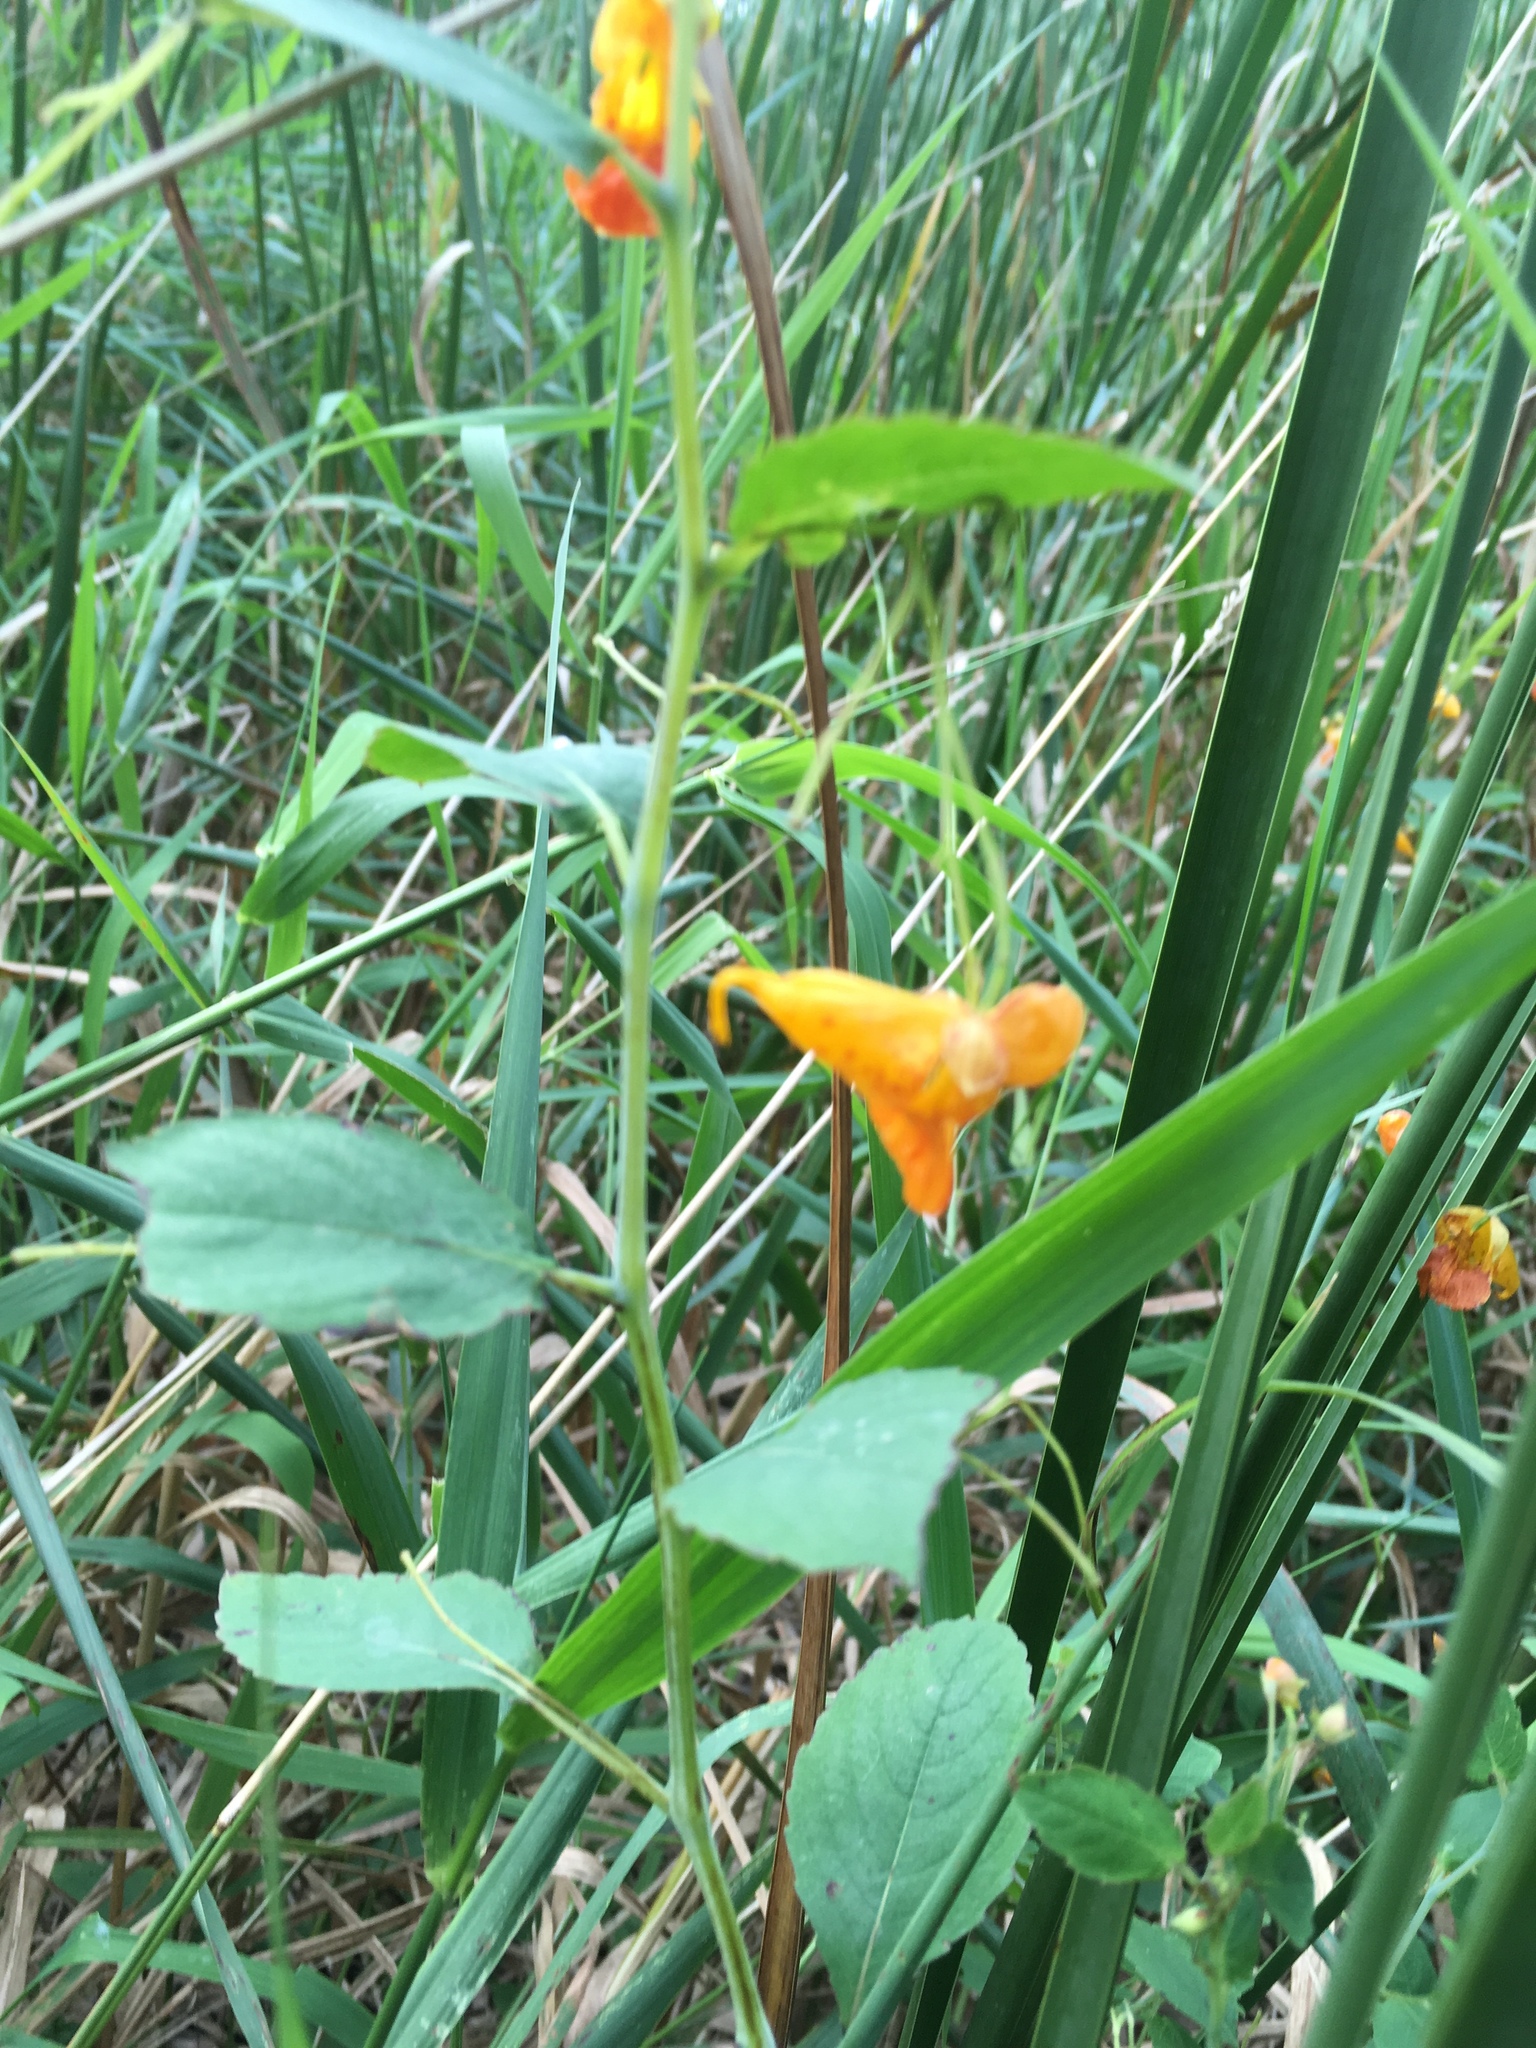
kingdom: Plantae
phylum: Tracheophyta
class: Magnoliopsida
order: Ericales
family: Balsaminaceae
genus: Impatiens
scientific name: Impatiens capensis
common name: Orange balsam
